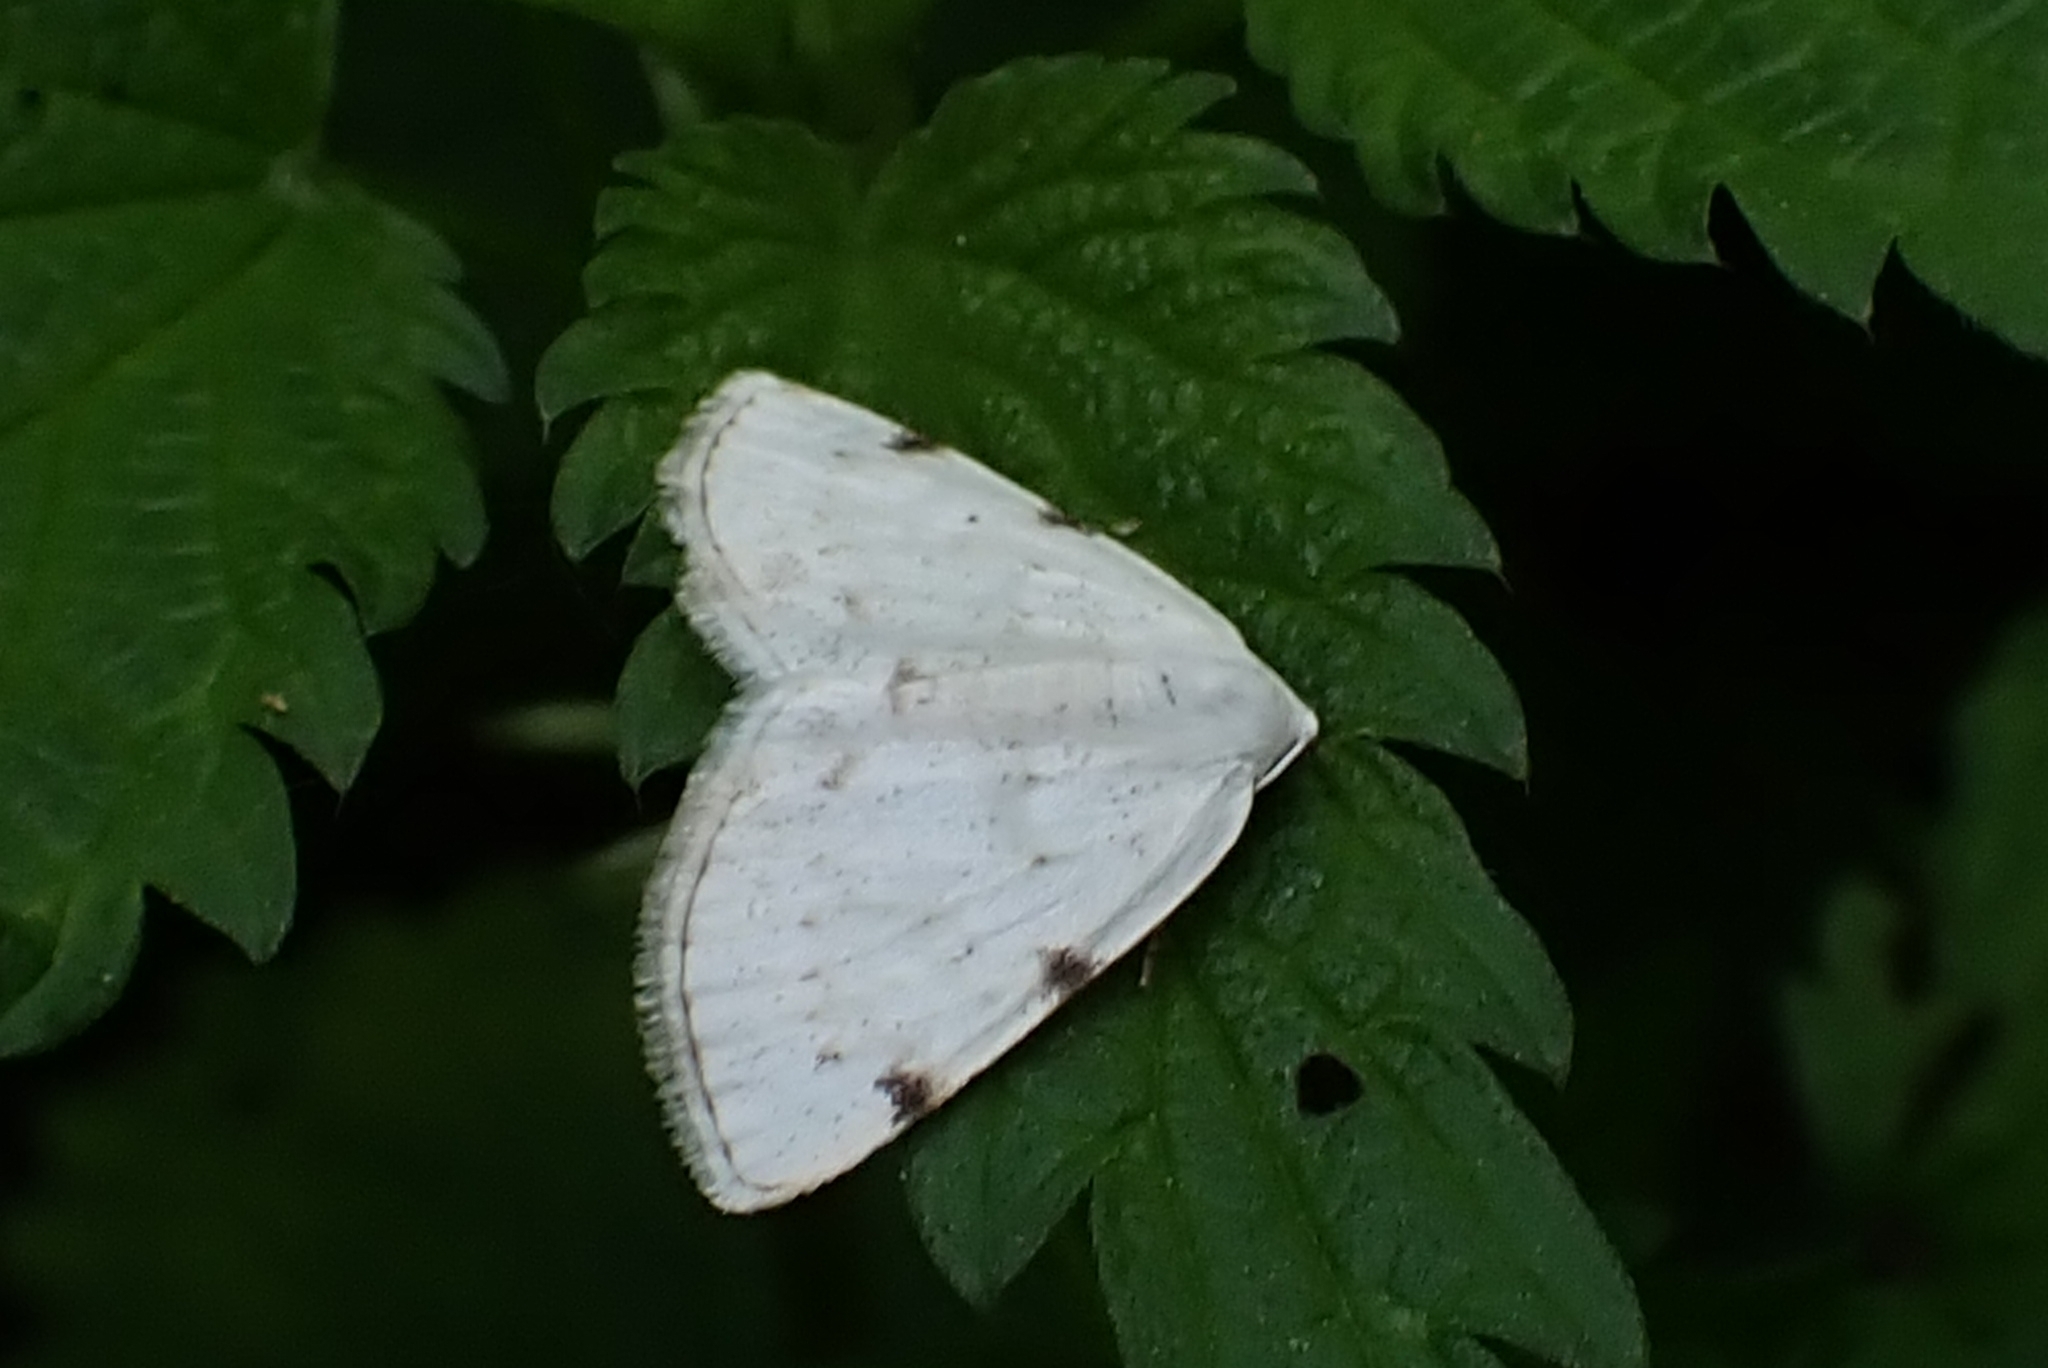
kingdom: Animalia
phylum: Arthropoda
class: Insecta
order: Lepidoptera
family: Geometridae
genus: Lomographa
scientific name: Lomographa bimaculata
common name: White-pinion spotted
